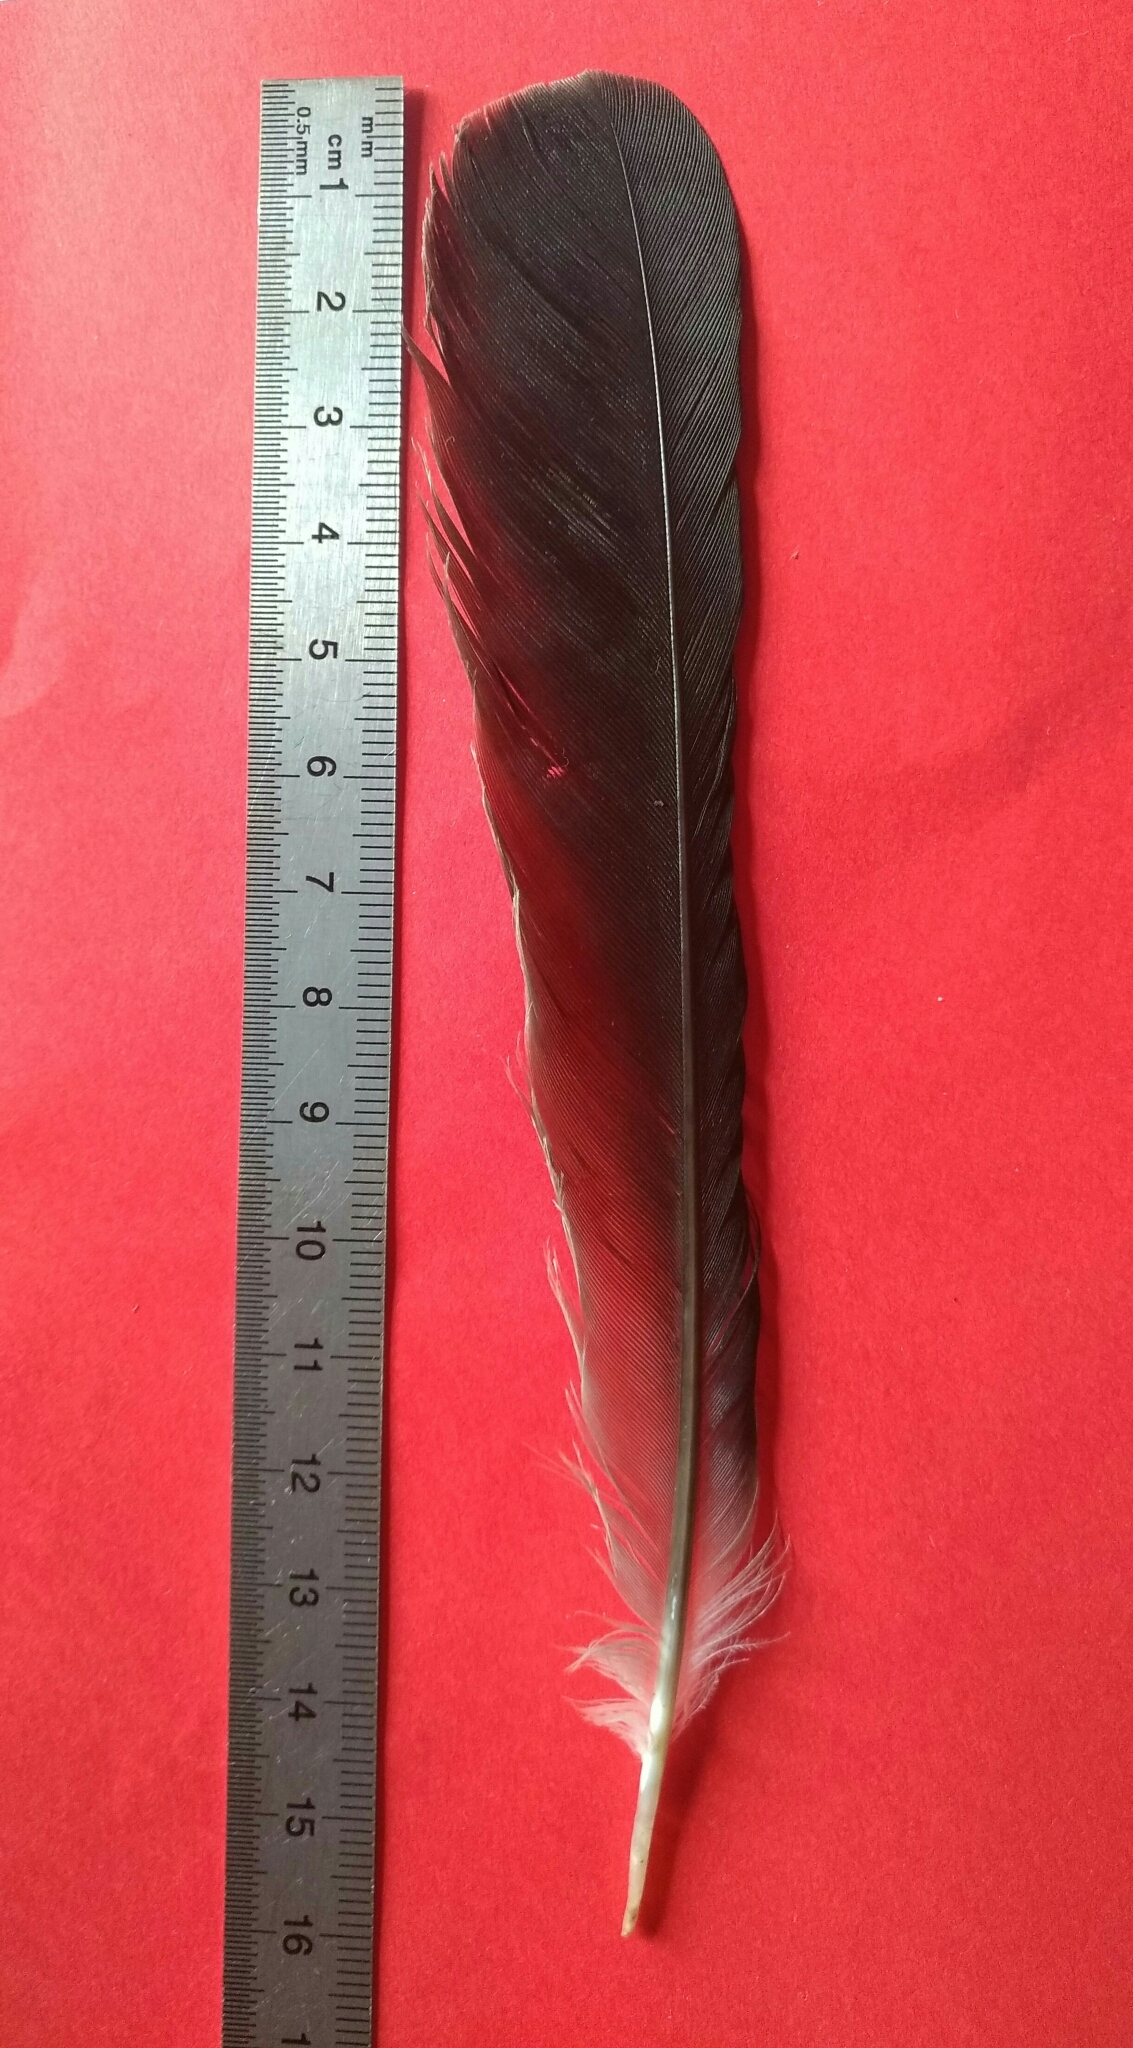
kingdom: Animalia
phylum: Chordata
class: Aves
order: Passeriformes
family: Corvidae
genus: Garrulus
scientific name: Garrulus glandarius
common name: Eurasian jay
